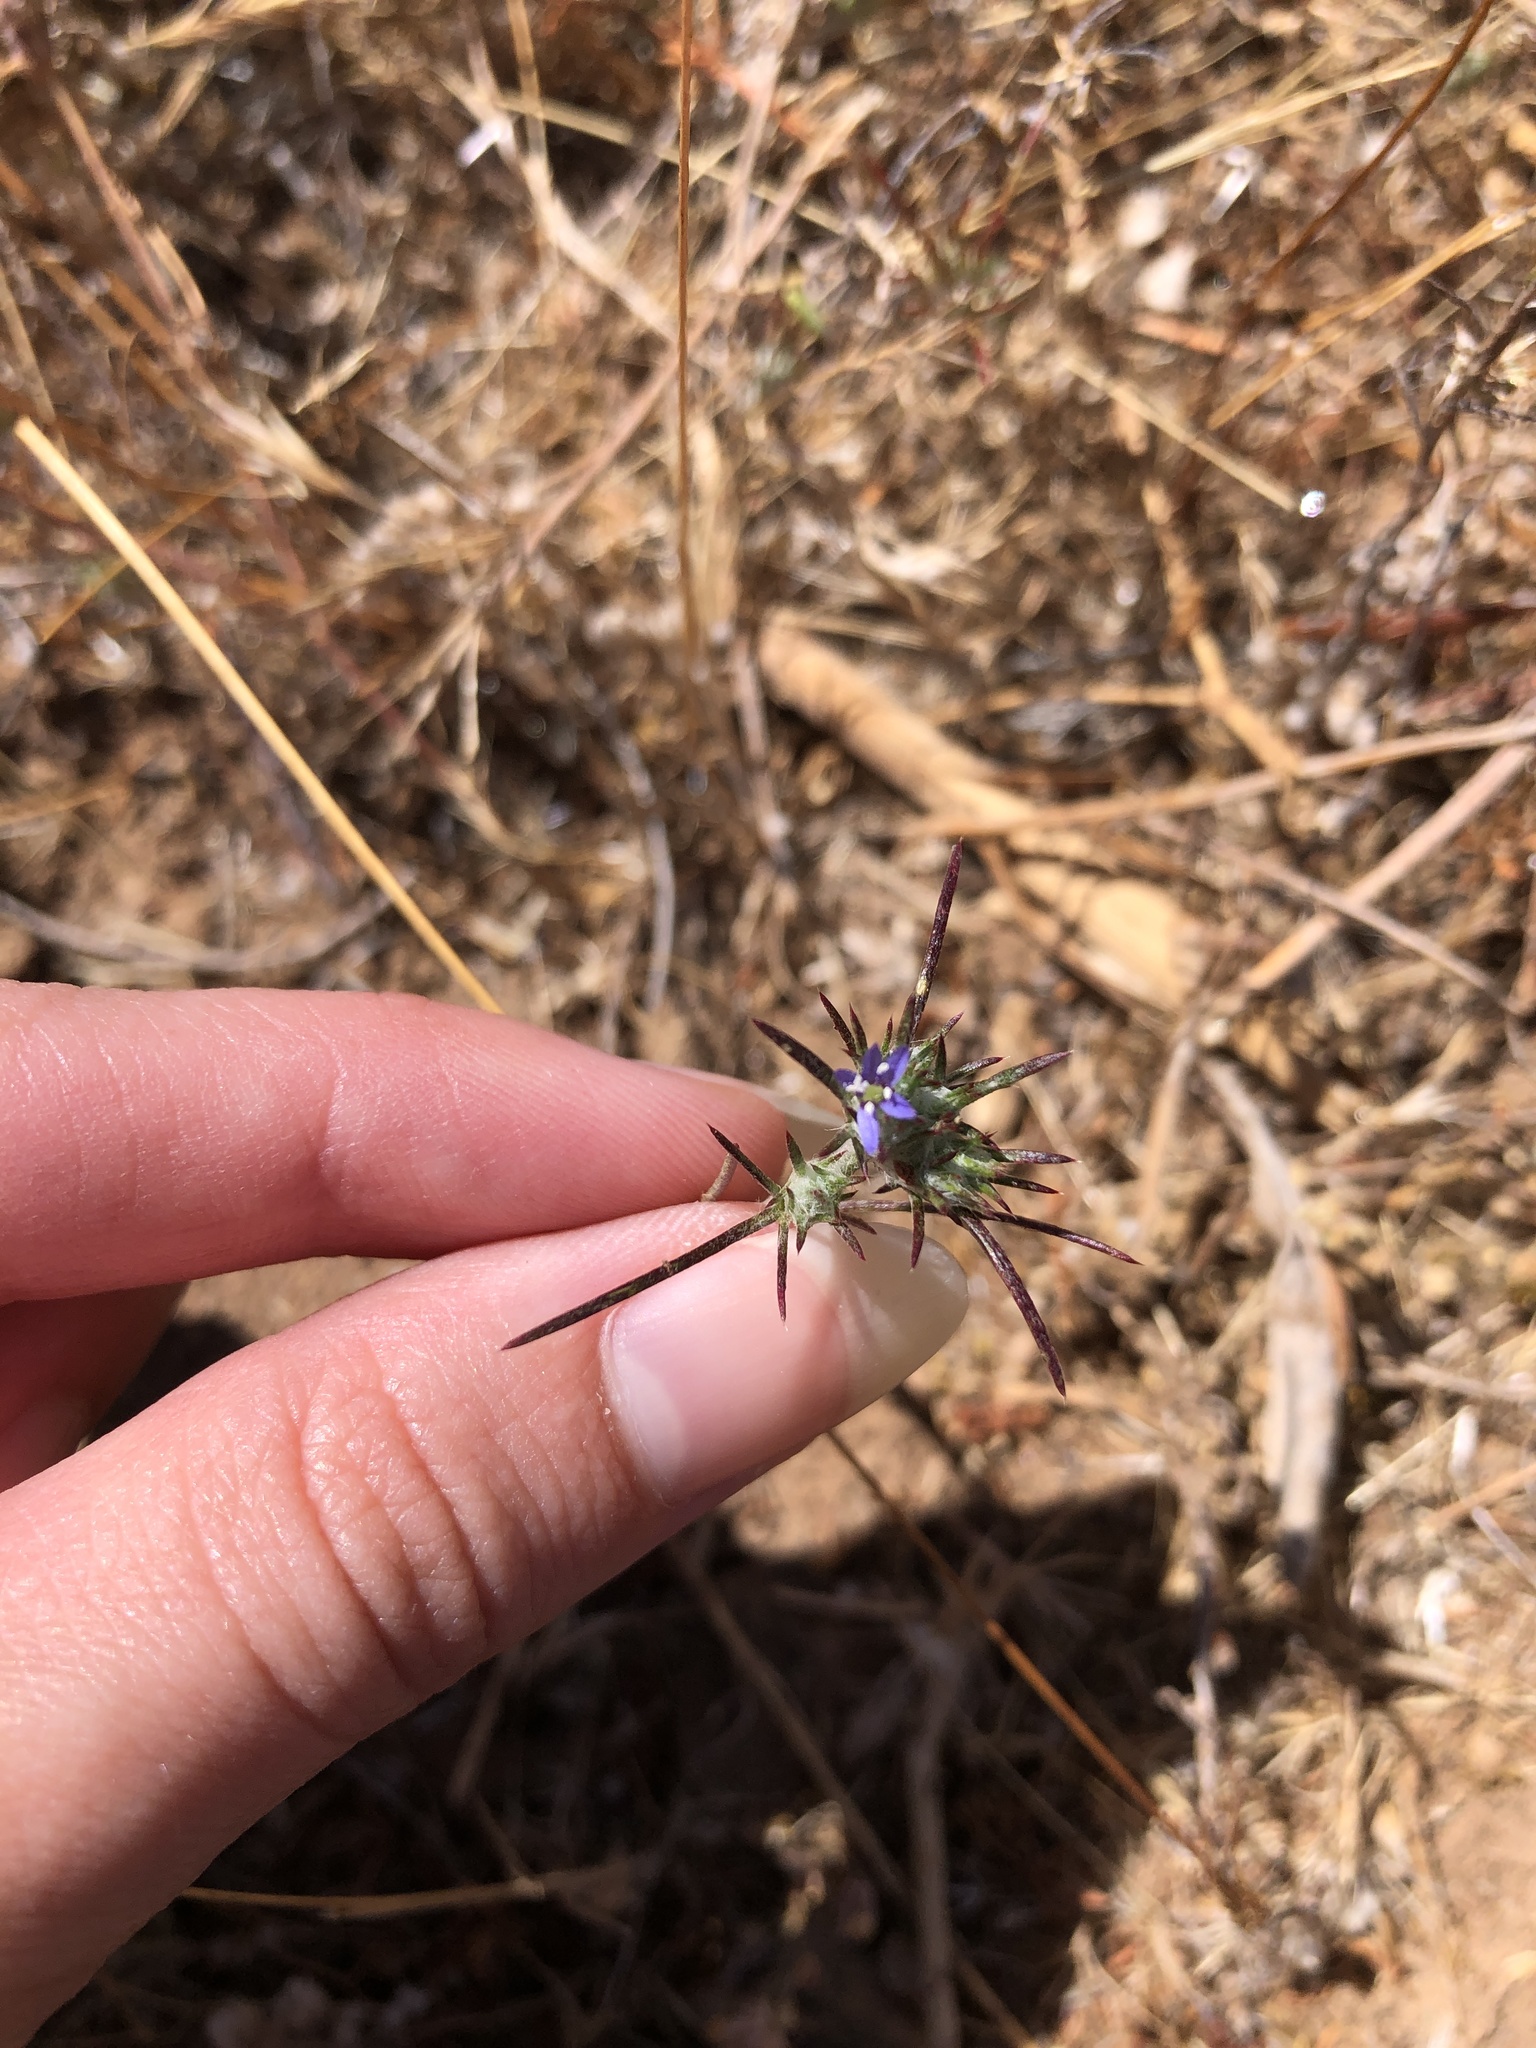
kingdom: Plantae
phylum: Tracheophyta
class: Magnoliopsida
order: Ericales
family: Polemoniaceae
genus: Eriastrum
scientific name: Eriastrum filifolium
